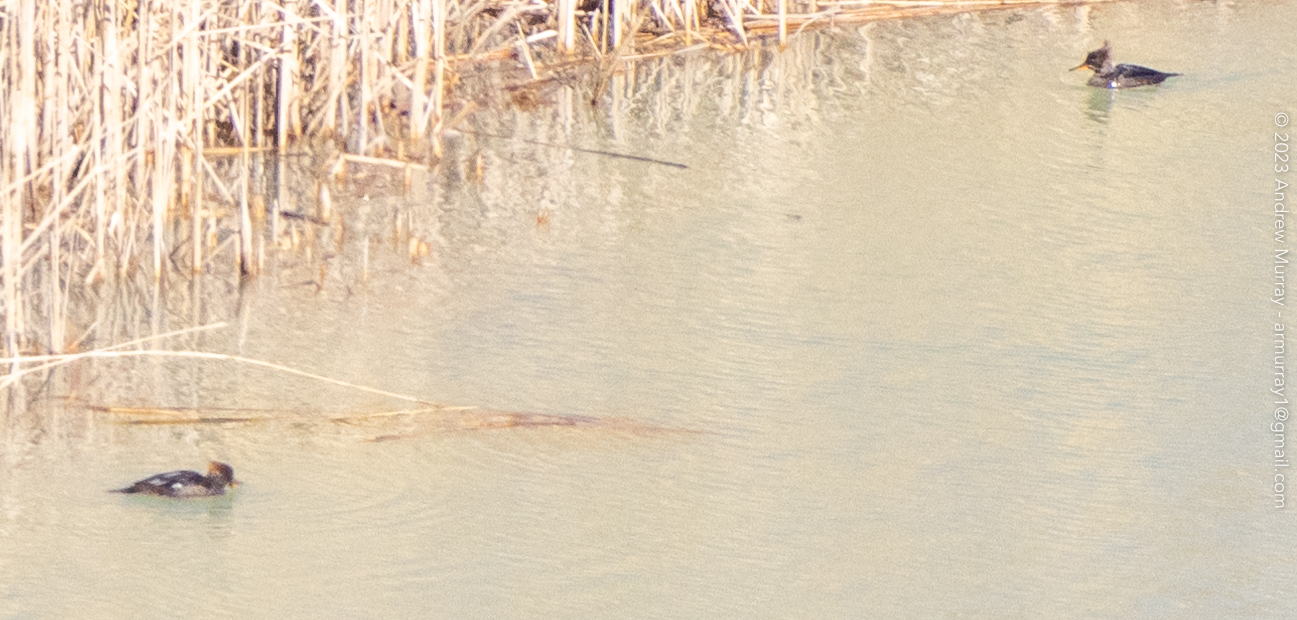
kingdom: Animalia
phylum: Chordata
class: Aves
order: Anseriformes
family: Anatidae
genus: Lophodytes
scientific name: Lophodytes cucullatus
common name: Hooded merganser
